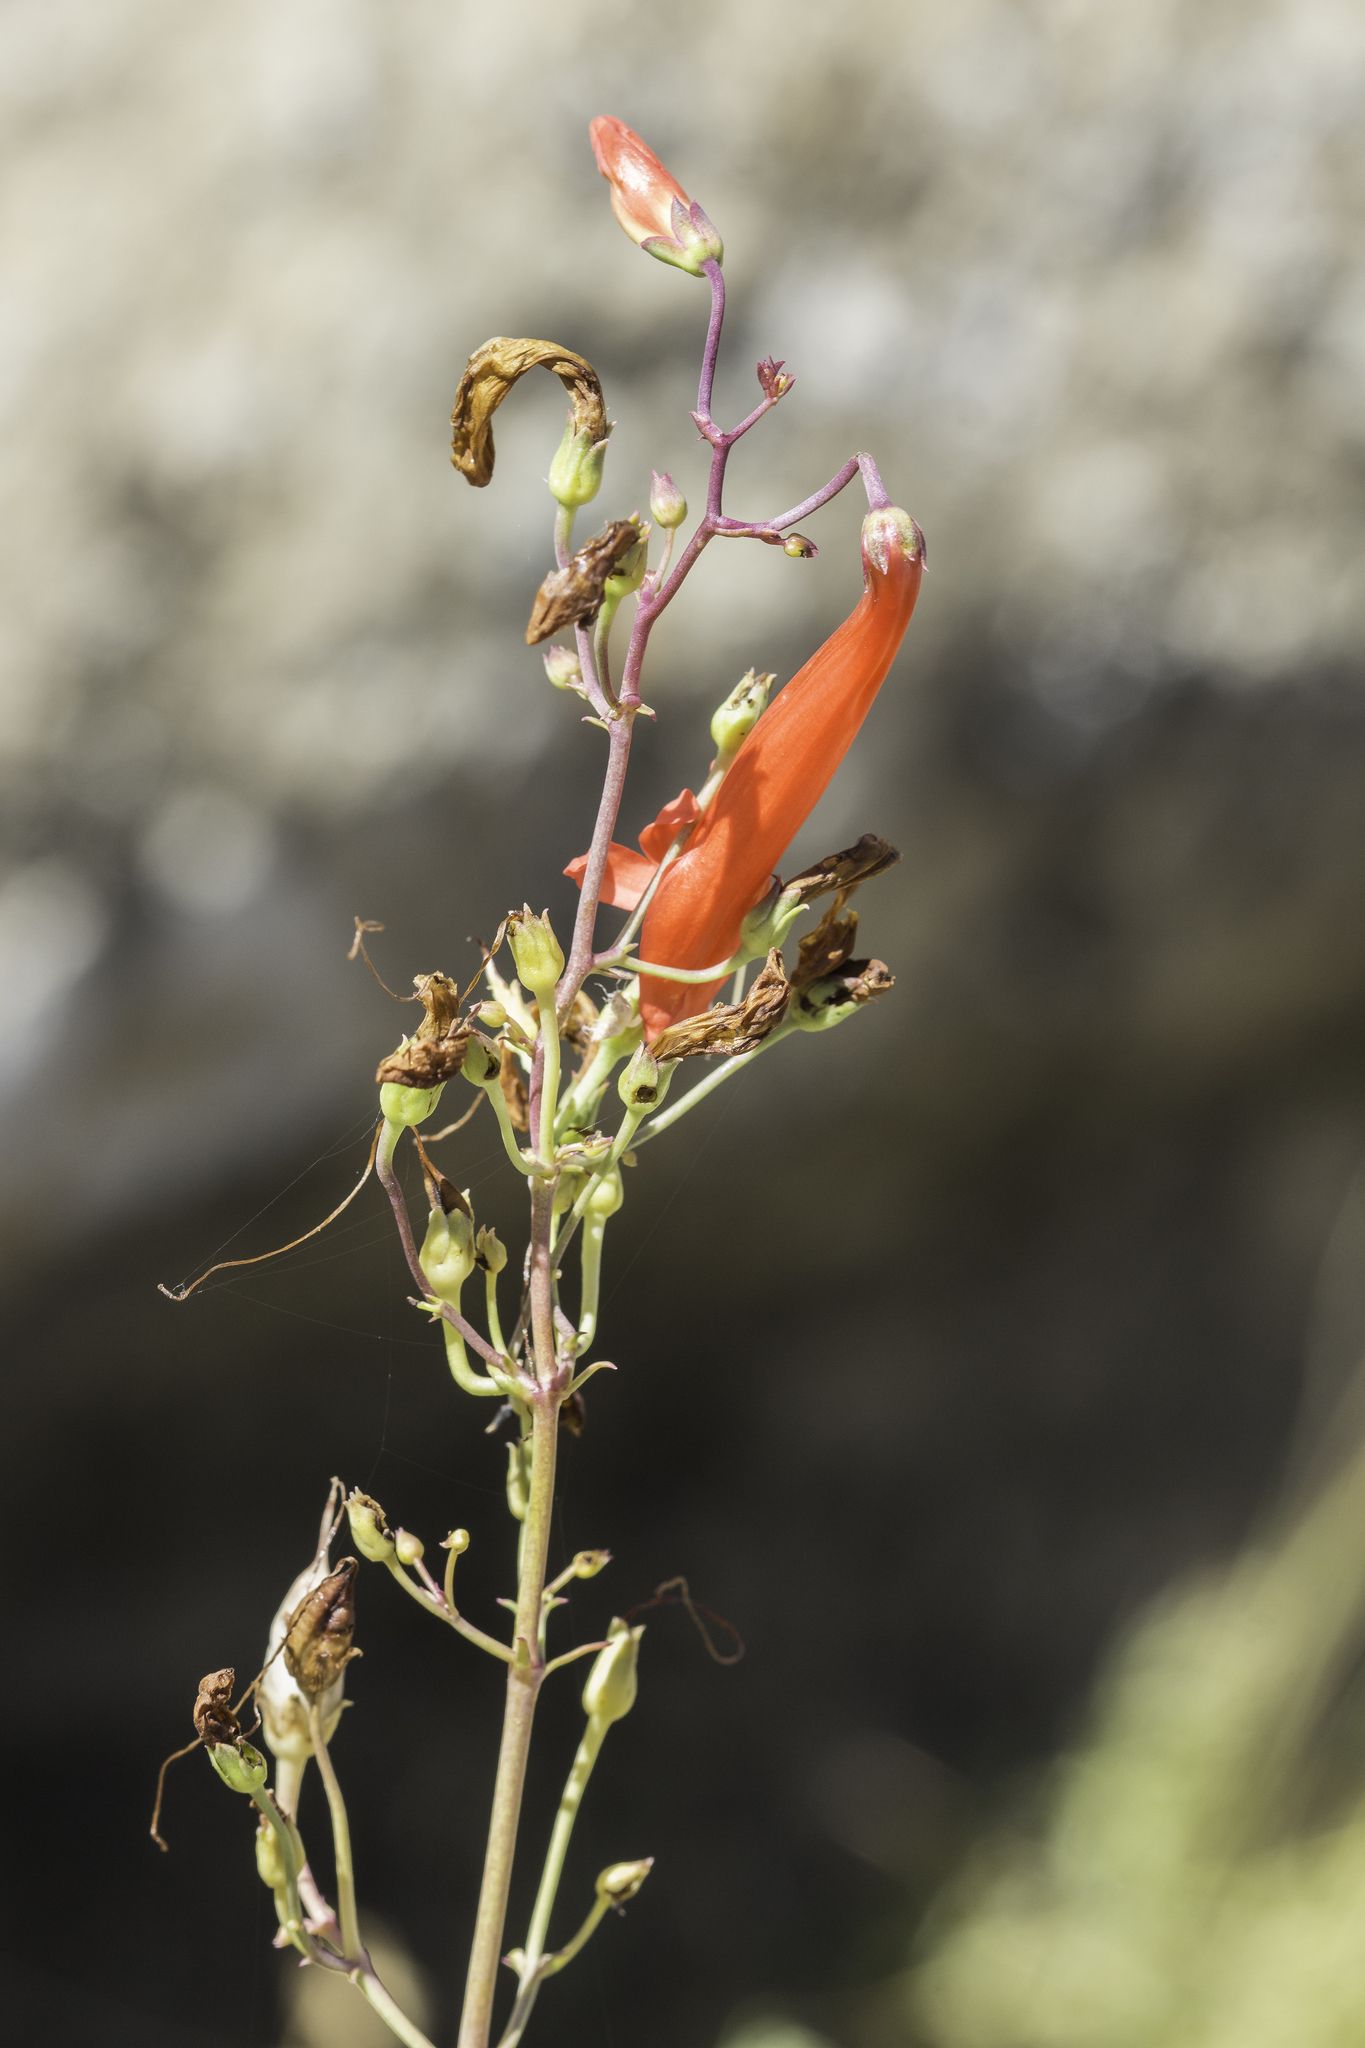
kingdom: Plantae
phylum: Tracheophyta
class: Magnoliopsida
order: Lamiales
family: Plantaginaceae
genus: Penstemon
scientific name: Penstemon barbatus
